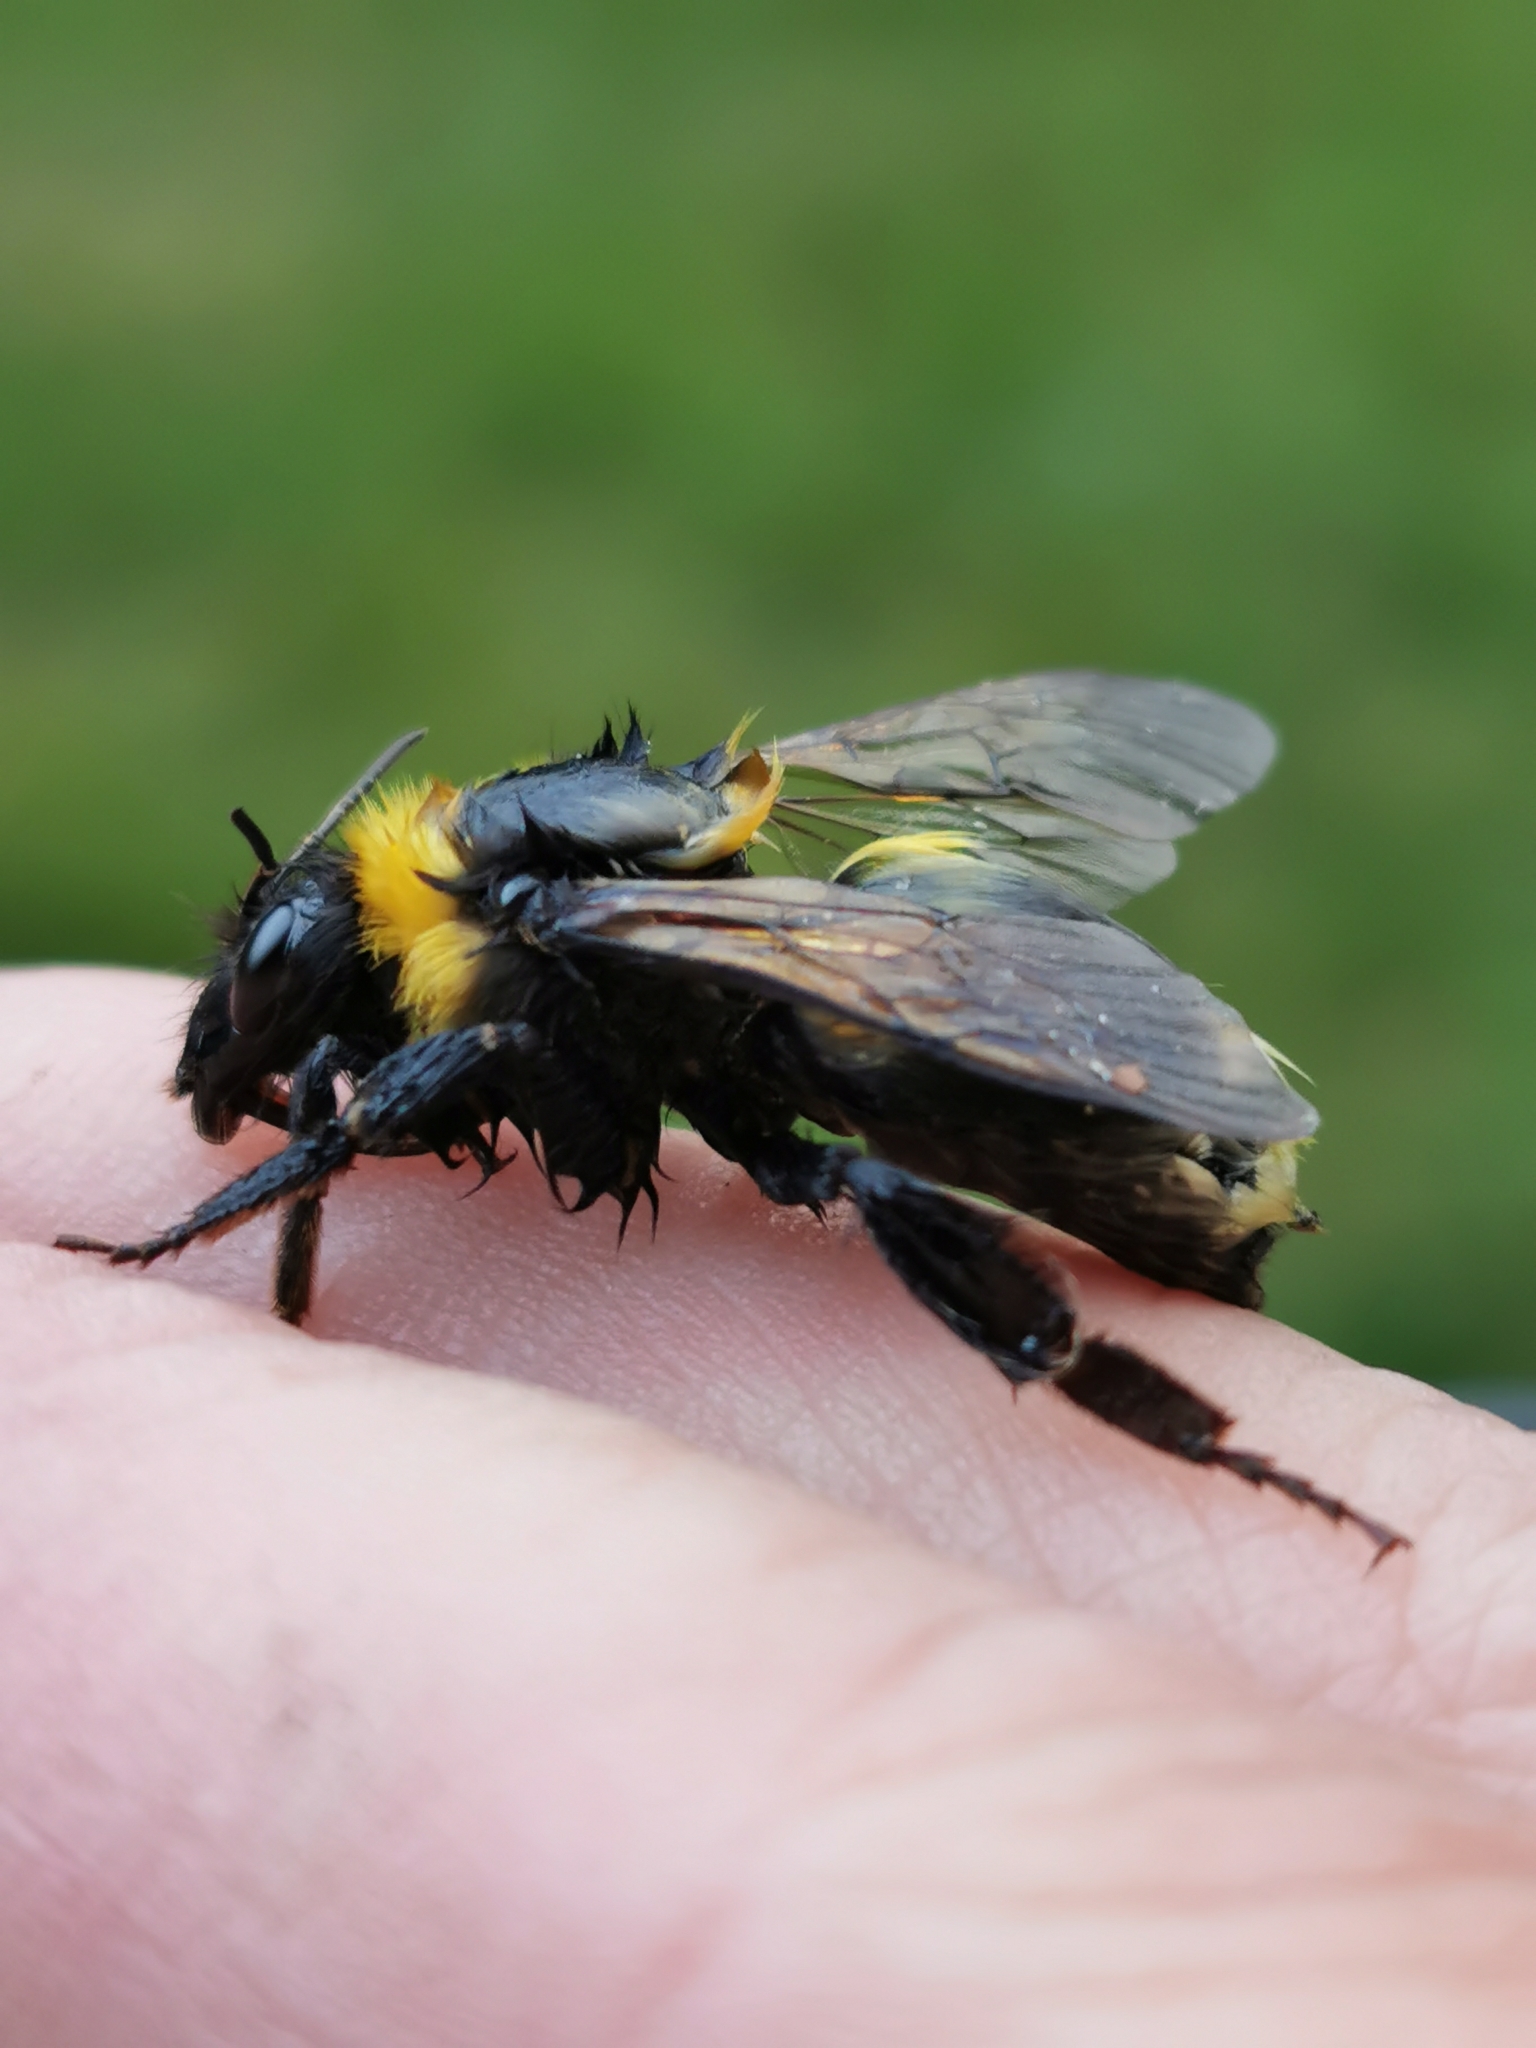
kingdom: Animalia
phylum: Arthropoda
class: Insecta
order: Hymenoptera
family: Apidae
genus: Bombus
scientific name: Bombus hortorum
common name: Garden bumblebee
